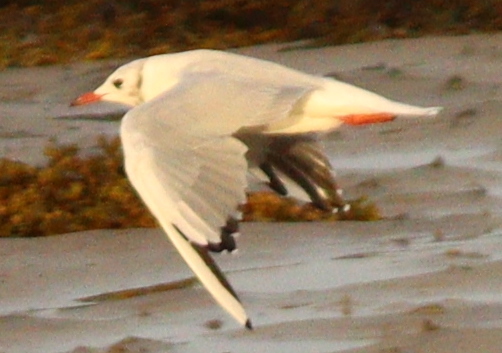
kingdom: Animalia
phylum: Chordata
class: Aves
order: Charadriiformes
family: Laridae
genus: Chroicocephalus
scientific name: Chroicocephalus ridibundus
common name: Black-headed gull
